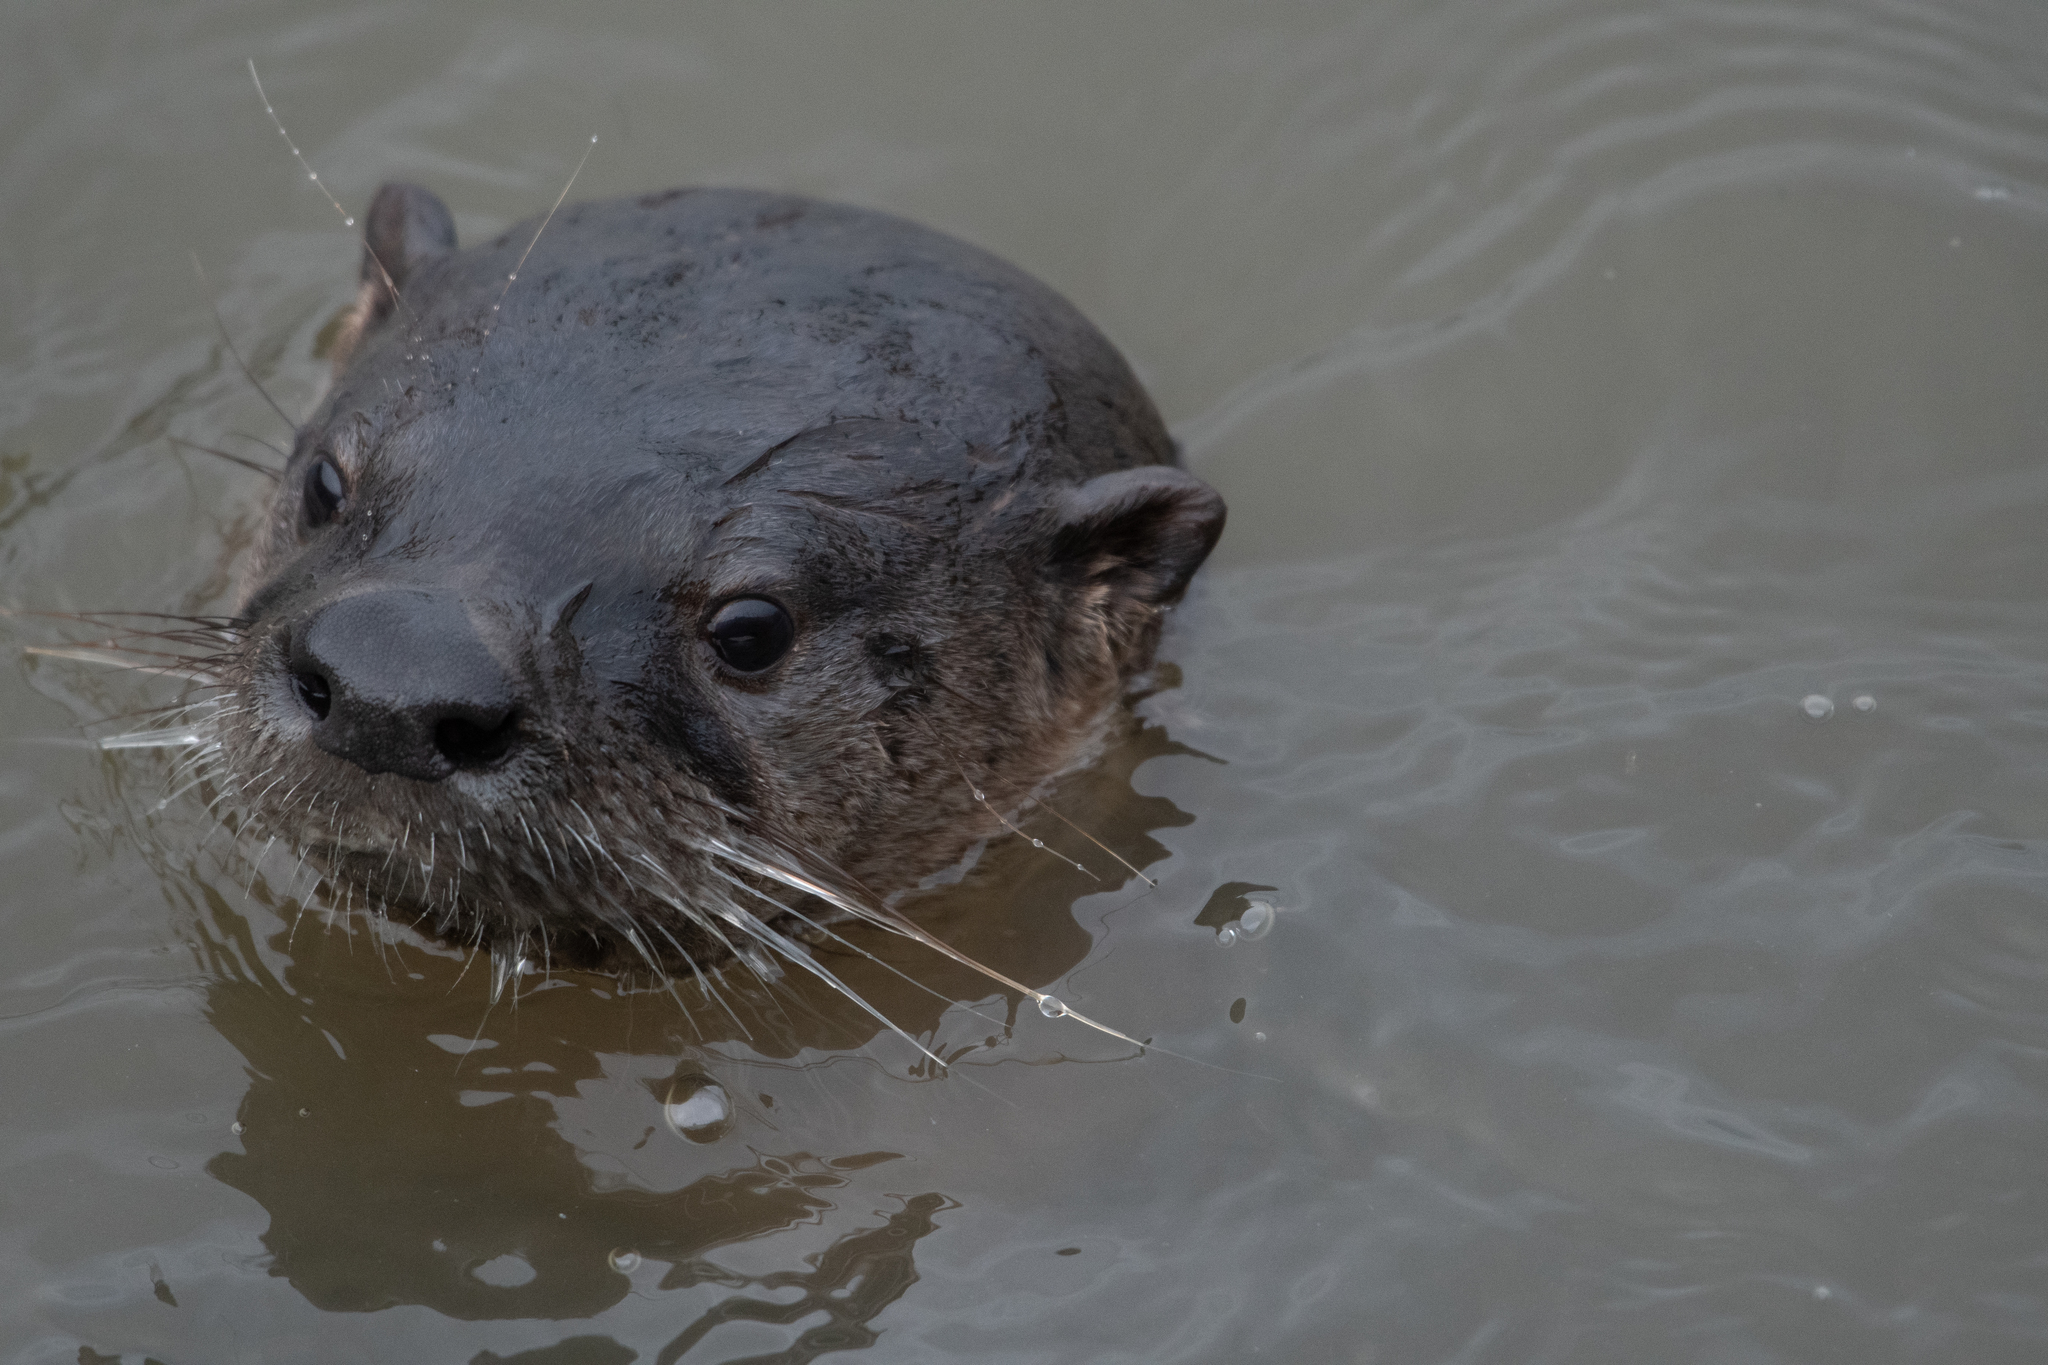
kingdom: Animalia
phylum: Chordata
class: Mammalia
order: Carnivora
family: Mustelidae
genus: Lontra
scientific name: Lontra canadensis
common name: North american river otter
